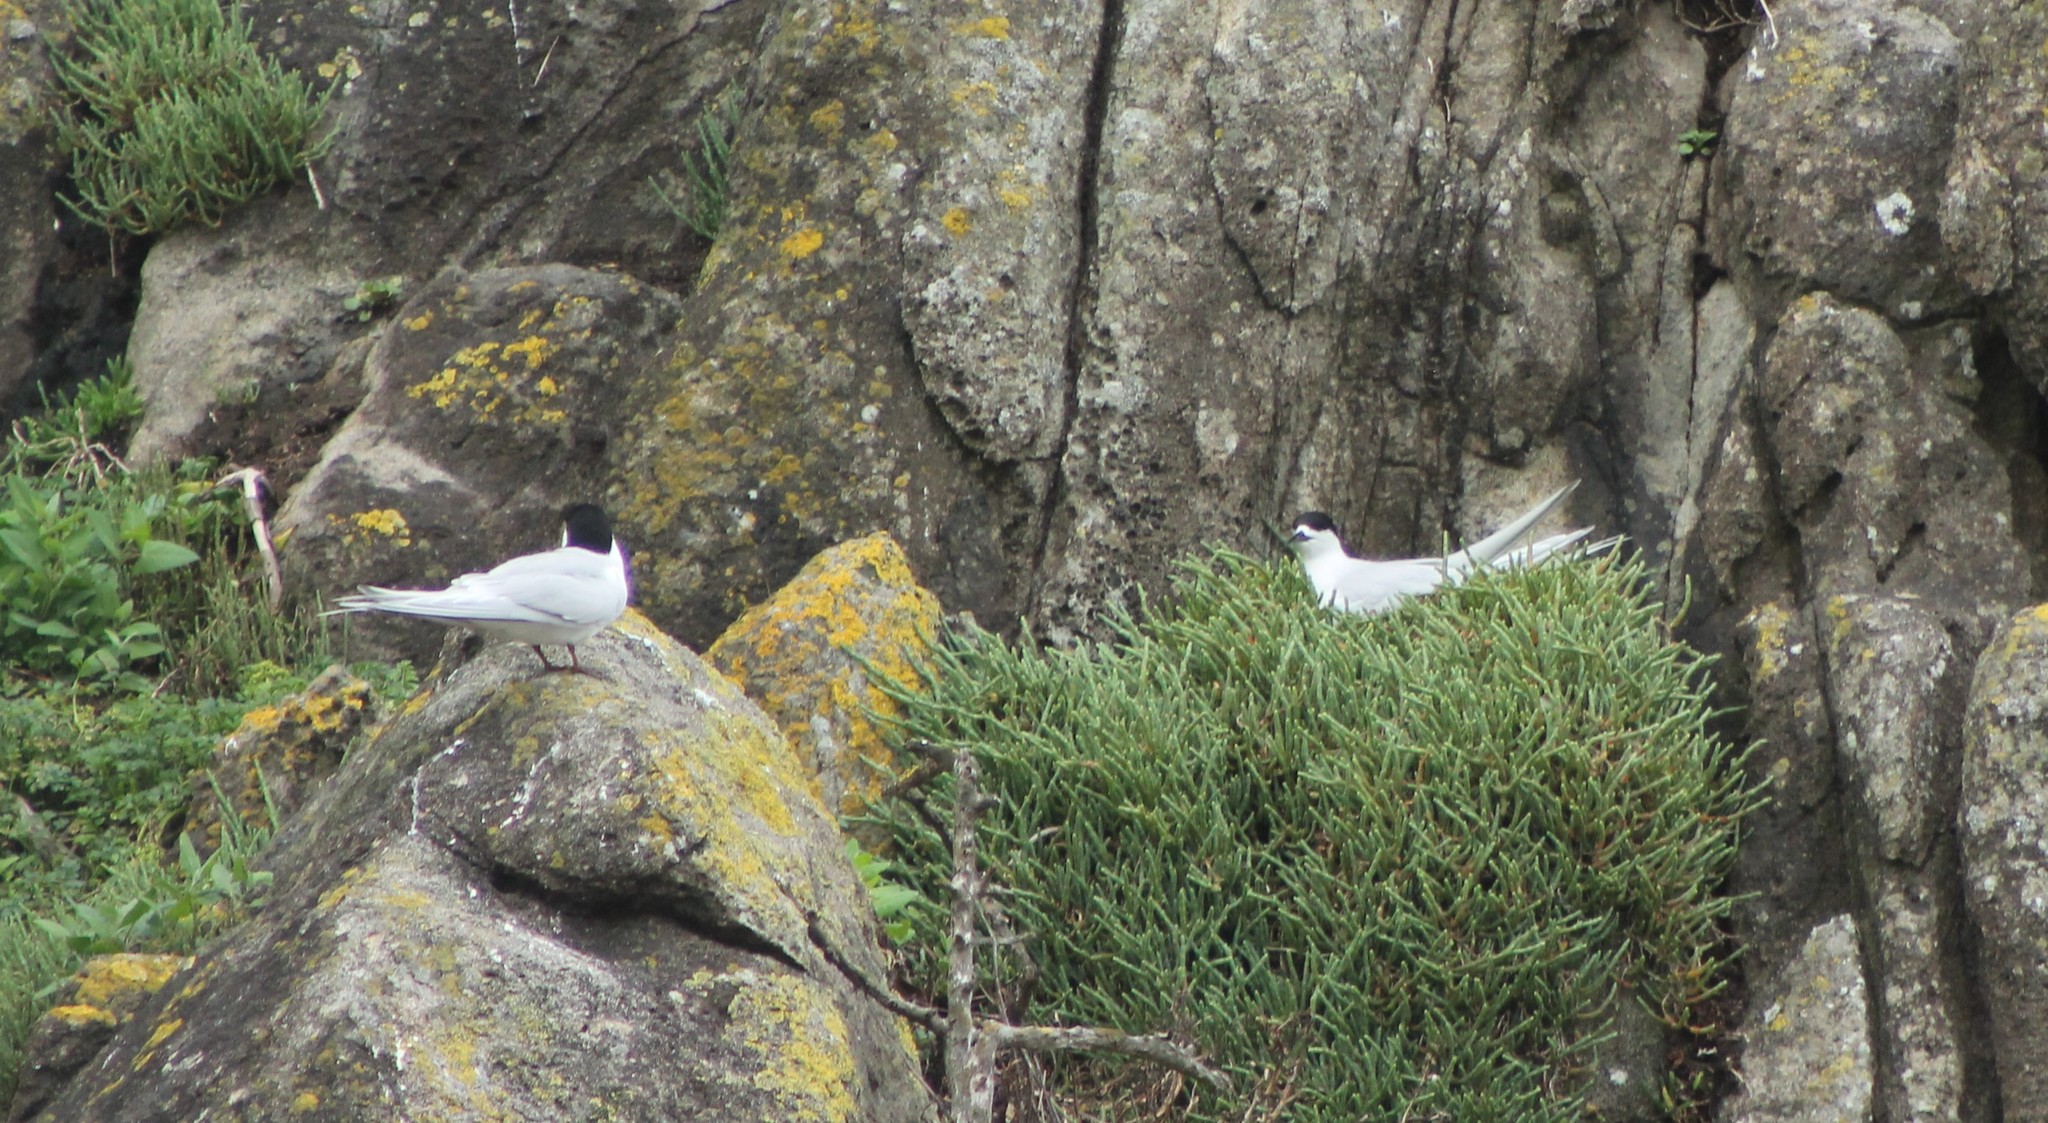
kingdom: Animalia
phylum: Chordata
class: Aves
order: Charadriiformes
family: Laridae
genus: Sterna
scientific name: Sterna striata
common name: White-fronted tern
